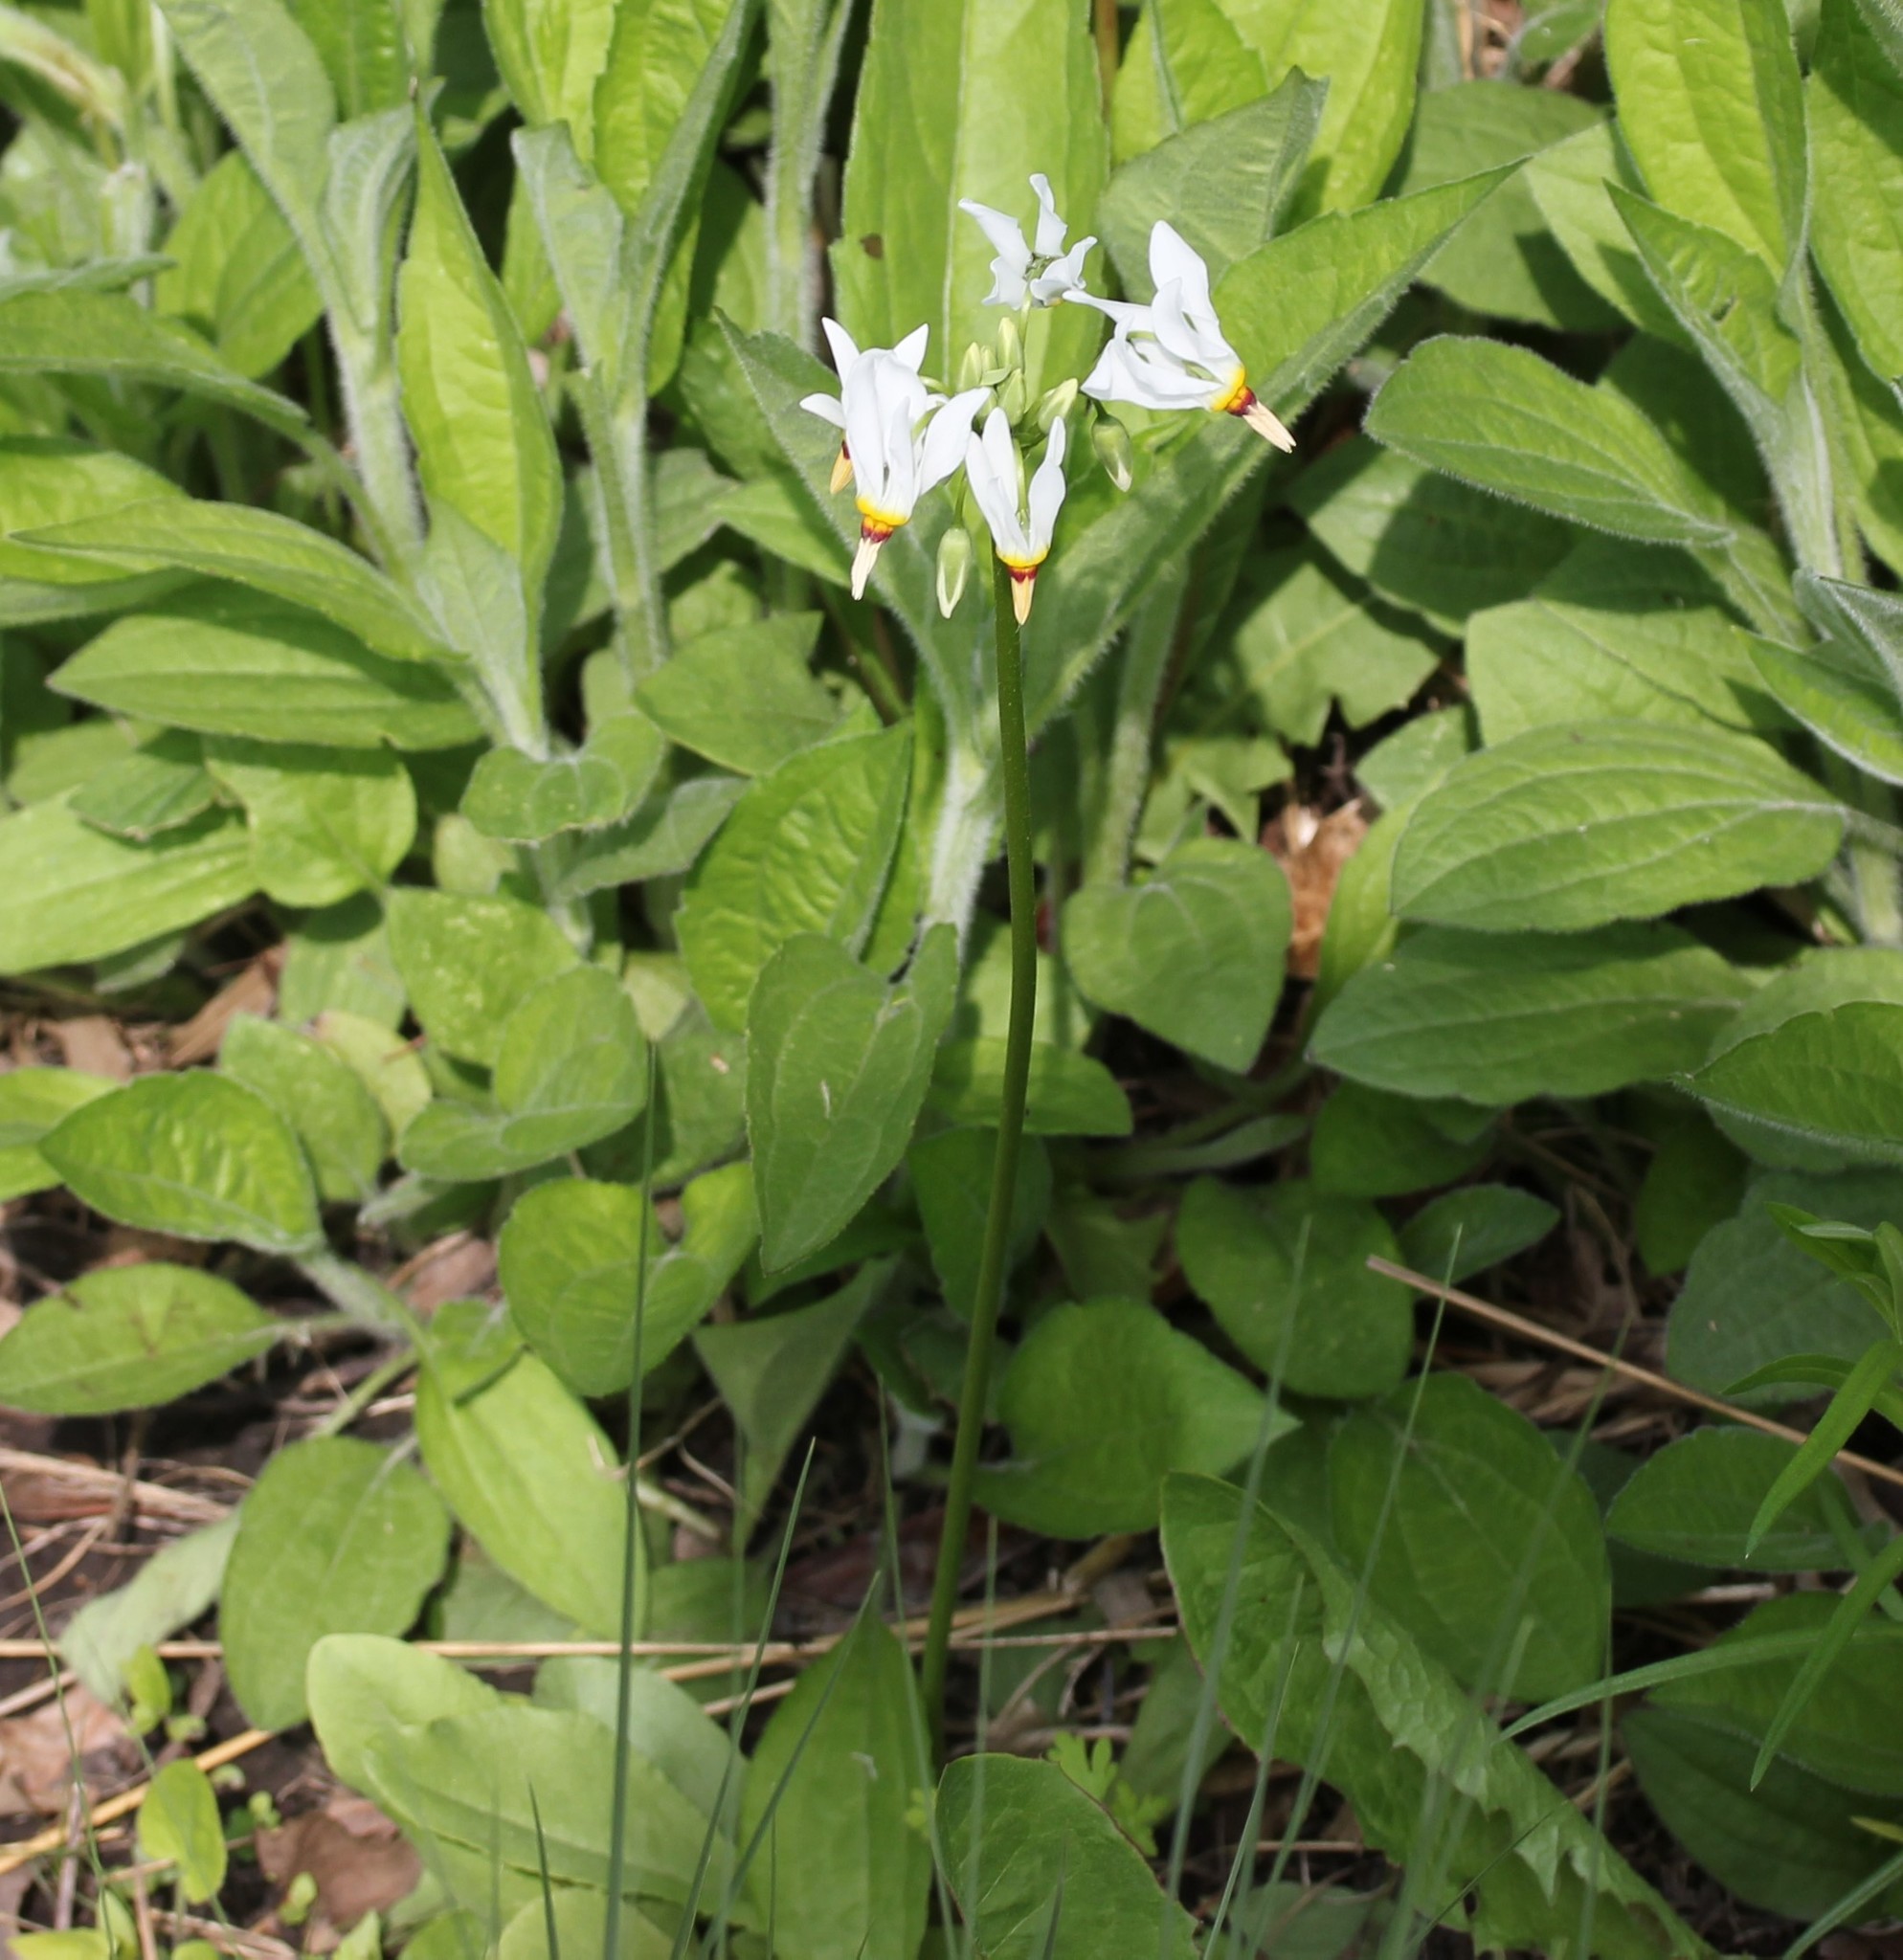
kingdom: Plantae
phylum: Tracheophyta
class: Magnoliopsida
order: Ericales
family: Primulaceae
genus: Dodecatheon
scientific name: Dodecatheon meadia
